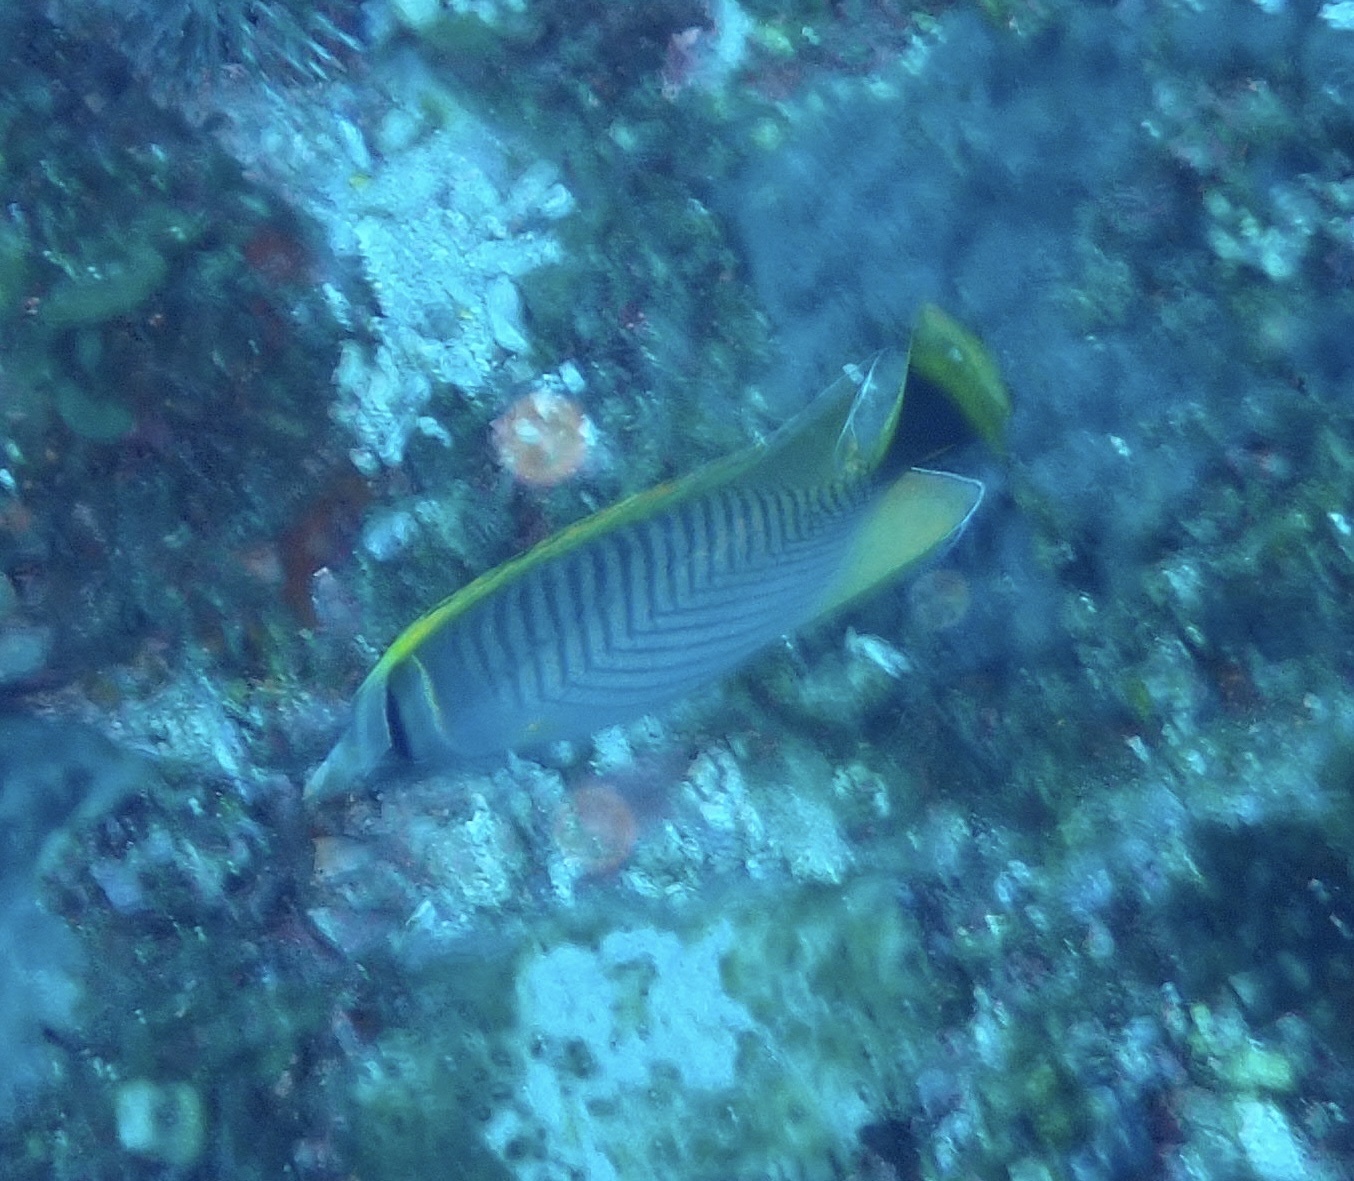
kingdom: Animalia
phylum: Chordata
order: Perciformes
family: Chaetodontidae
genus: Chaetodon
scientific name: Chaetodon trifascialis
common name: Chevroned butterflyfish
